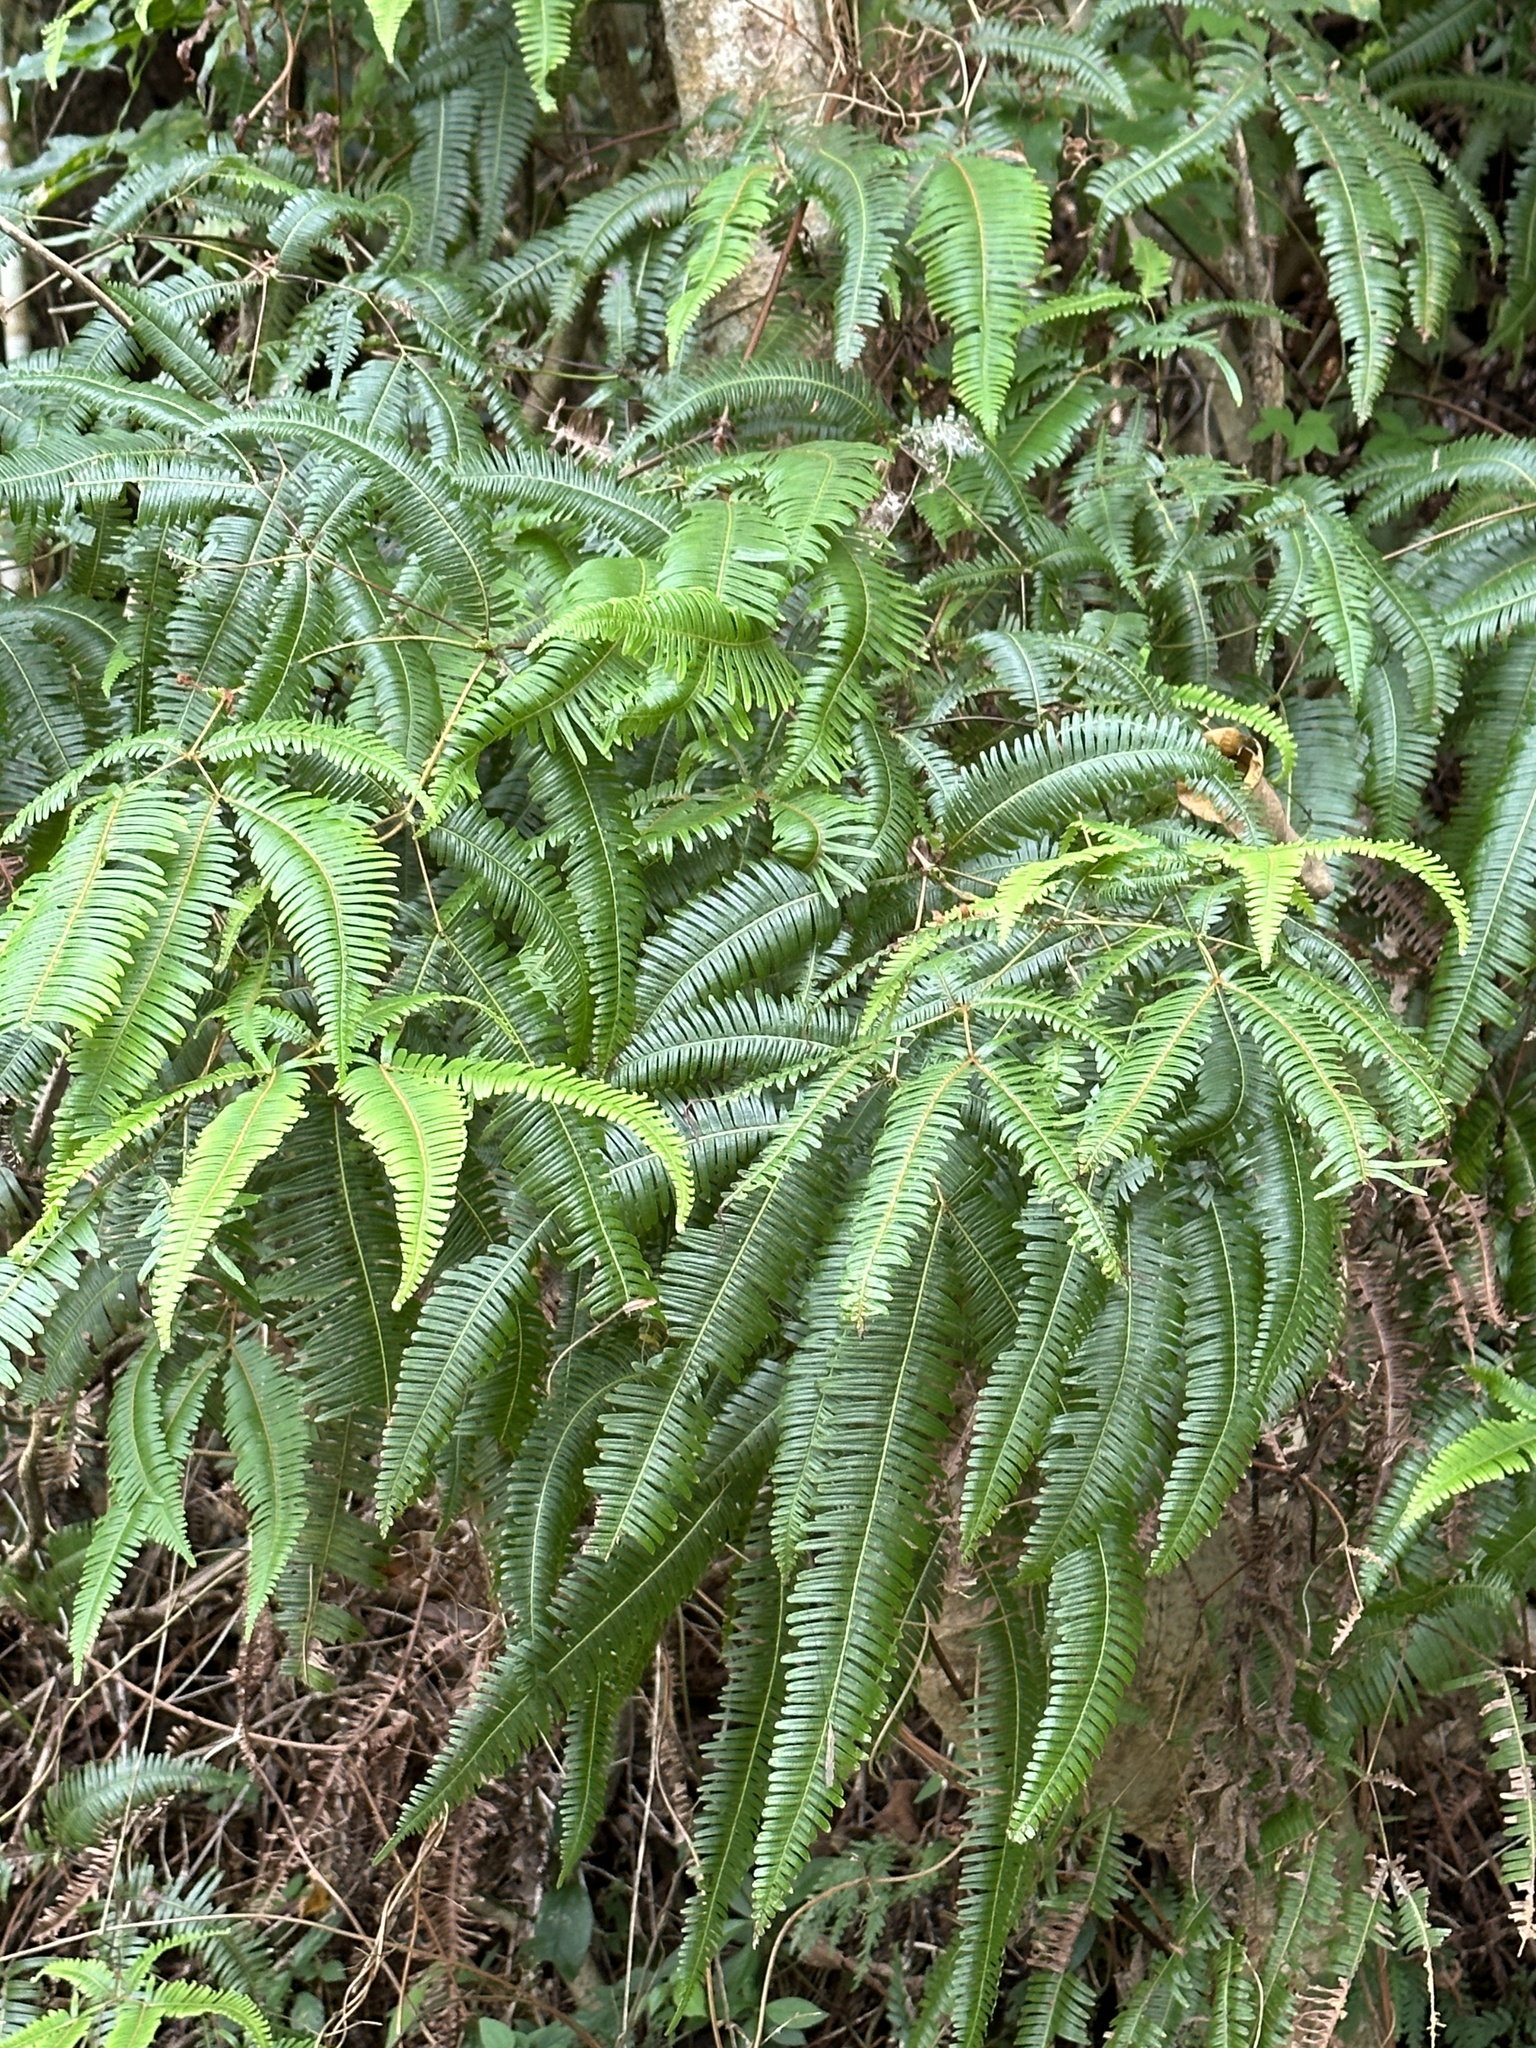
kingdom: Plantae
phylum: Tracheophyta
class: Polypodiopsida
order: Gleicheniales
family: Gleicheniaceae
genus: Dicranopteris
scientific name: Dicranopteris linearis
